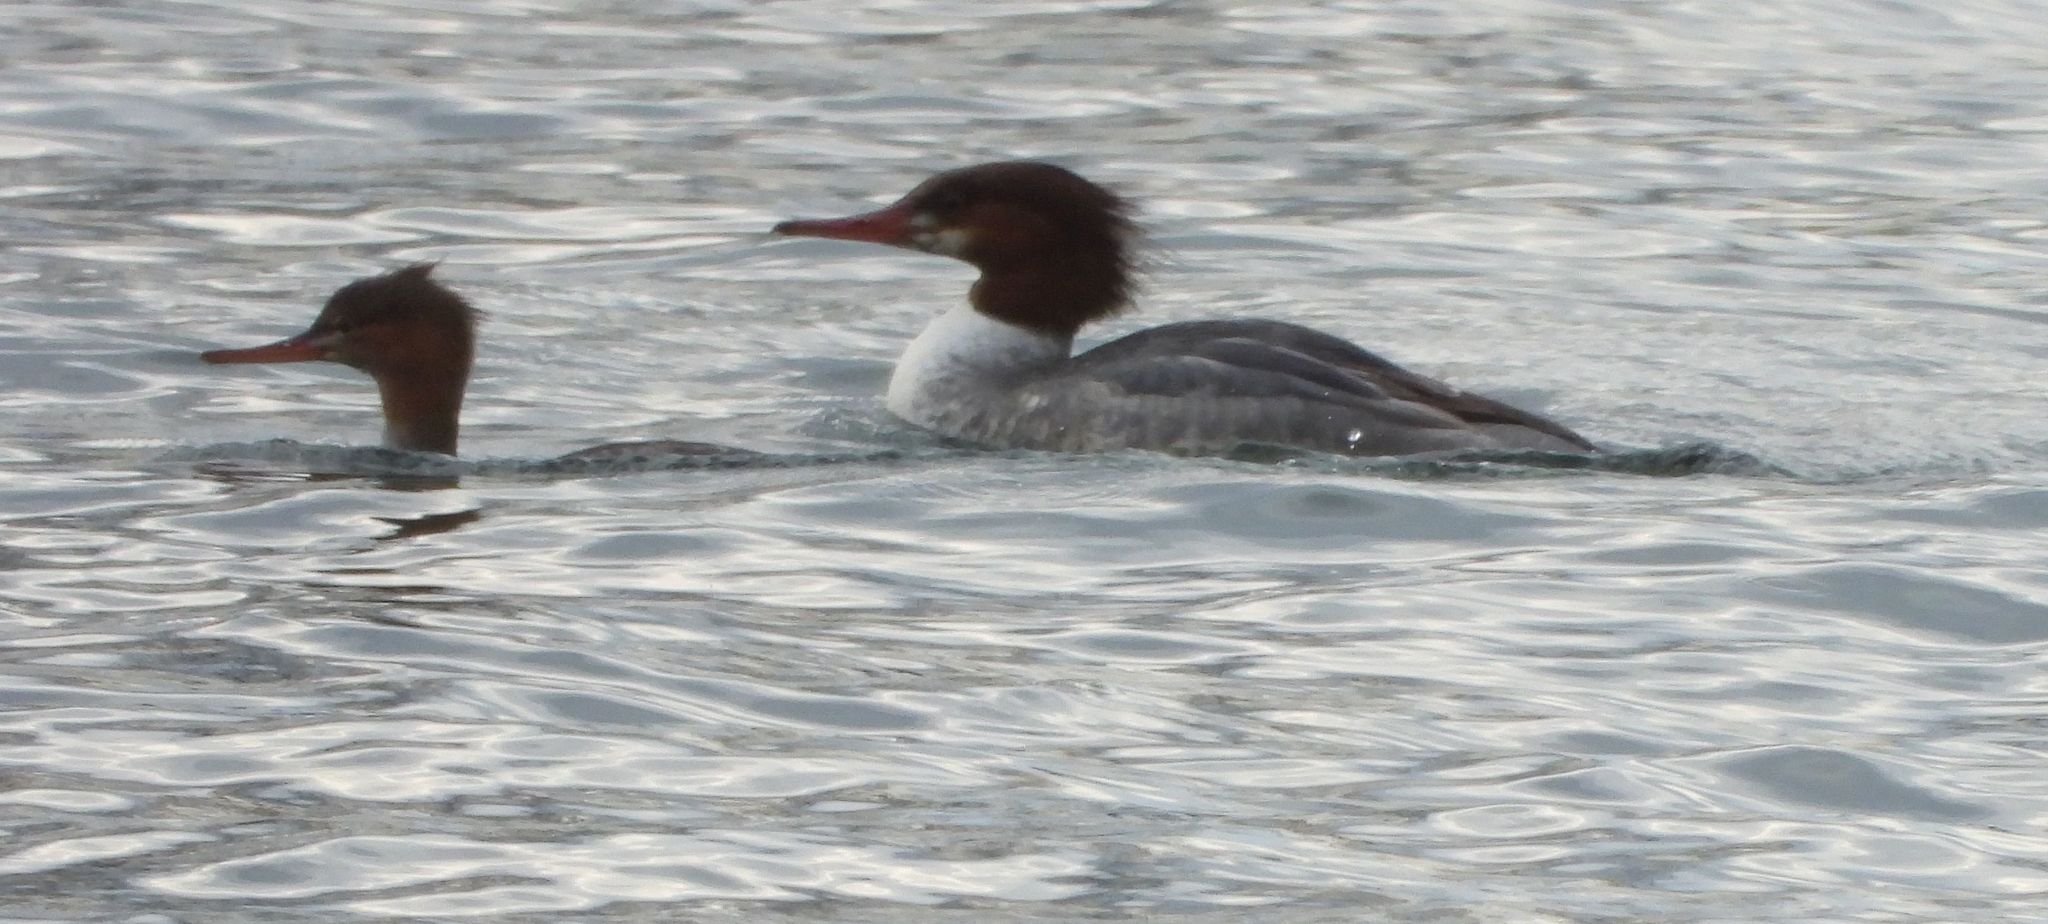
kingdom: Animalia
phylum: Chordata
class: Aves
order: Anseriformes
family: Anatidae
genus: Mergus
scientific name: Mergus merganser
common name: Common merganser
